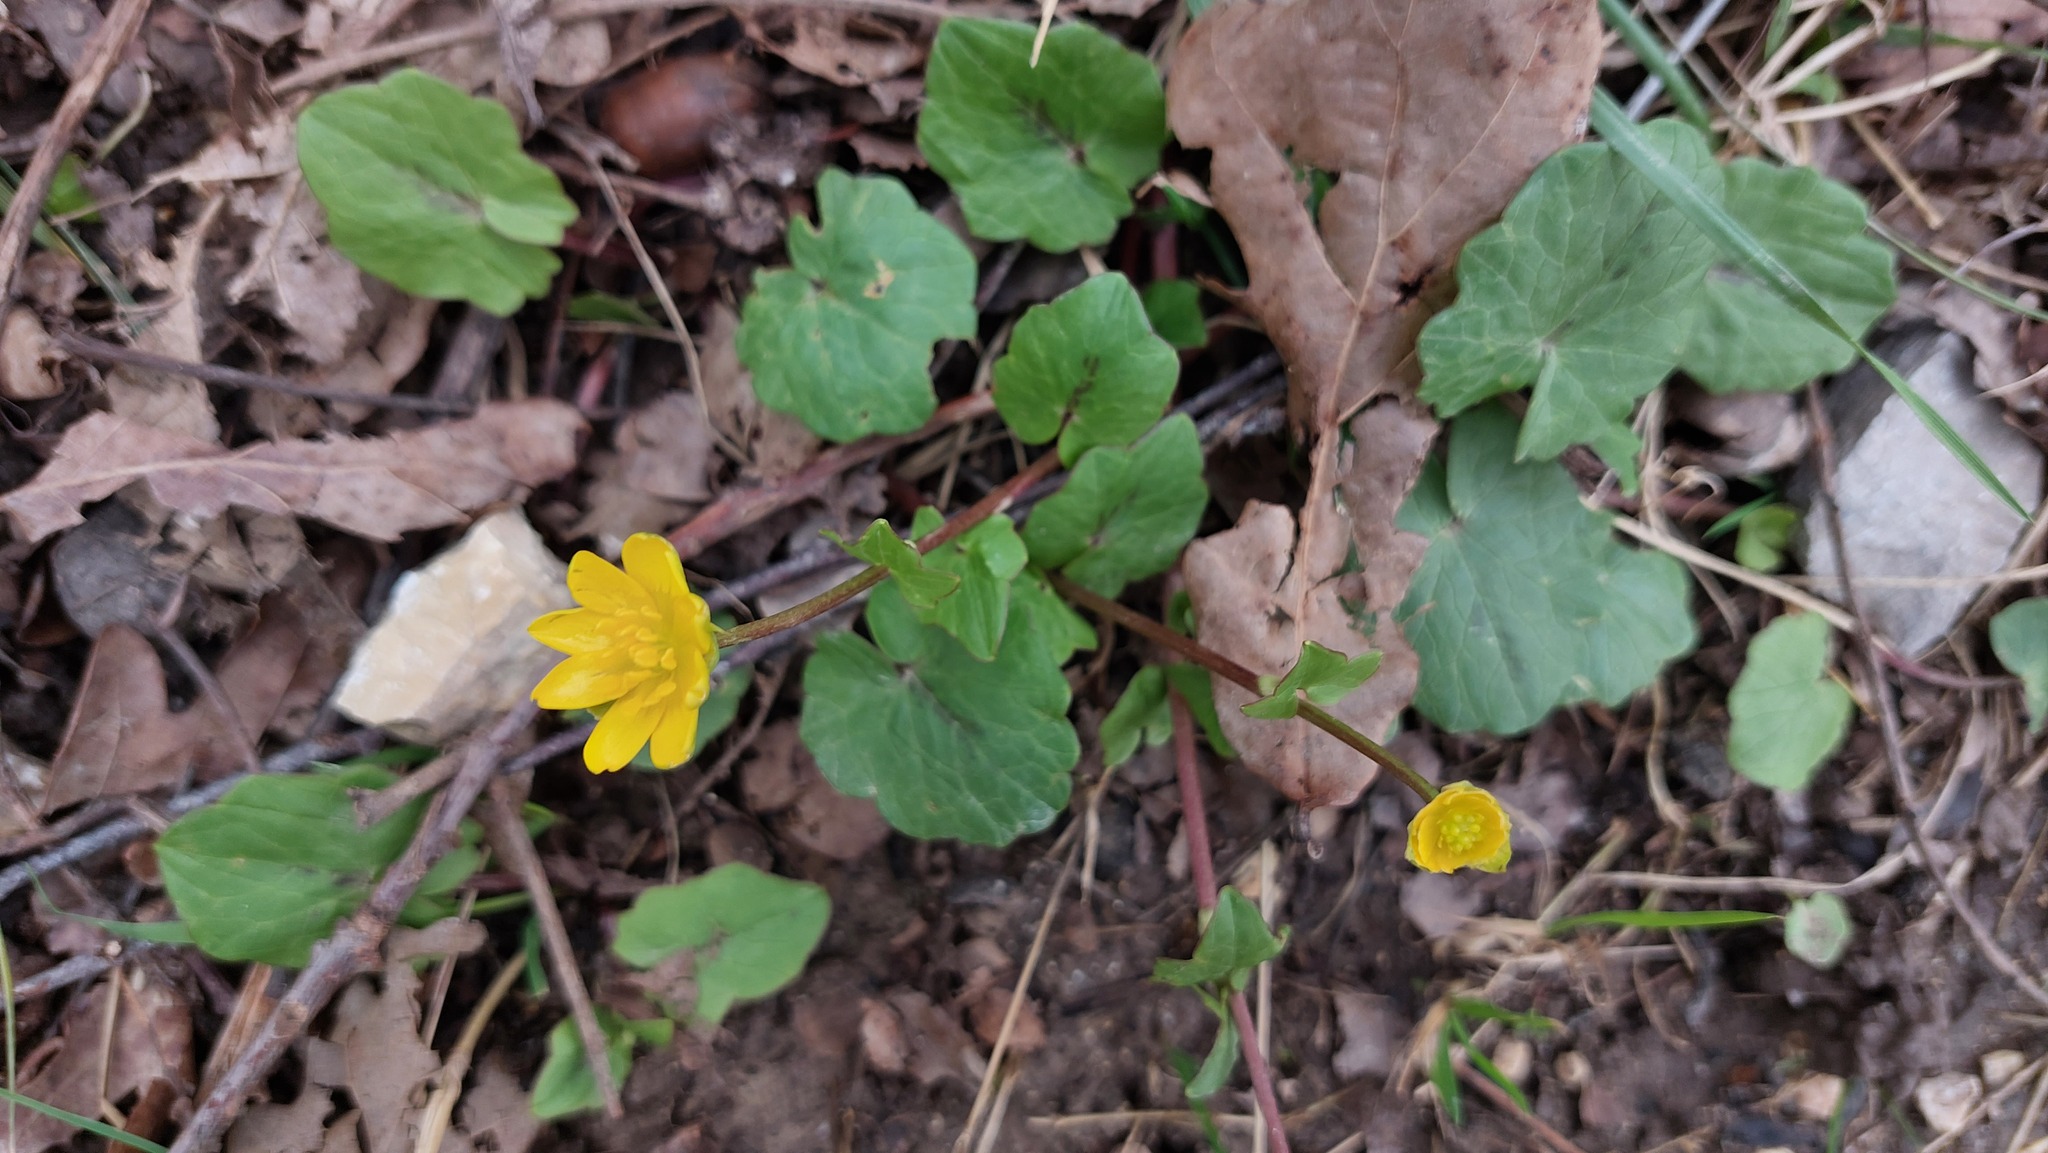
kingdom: Plantae
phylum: Tracheophyta
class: Magnoliopsida
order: Ranunculales
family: Ranunculaceae
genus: Ficaria
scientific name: Ficaria verna
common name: Lesser celandine
